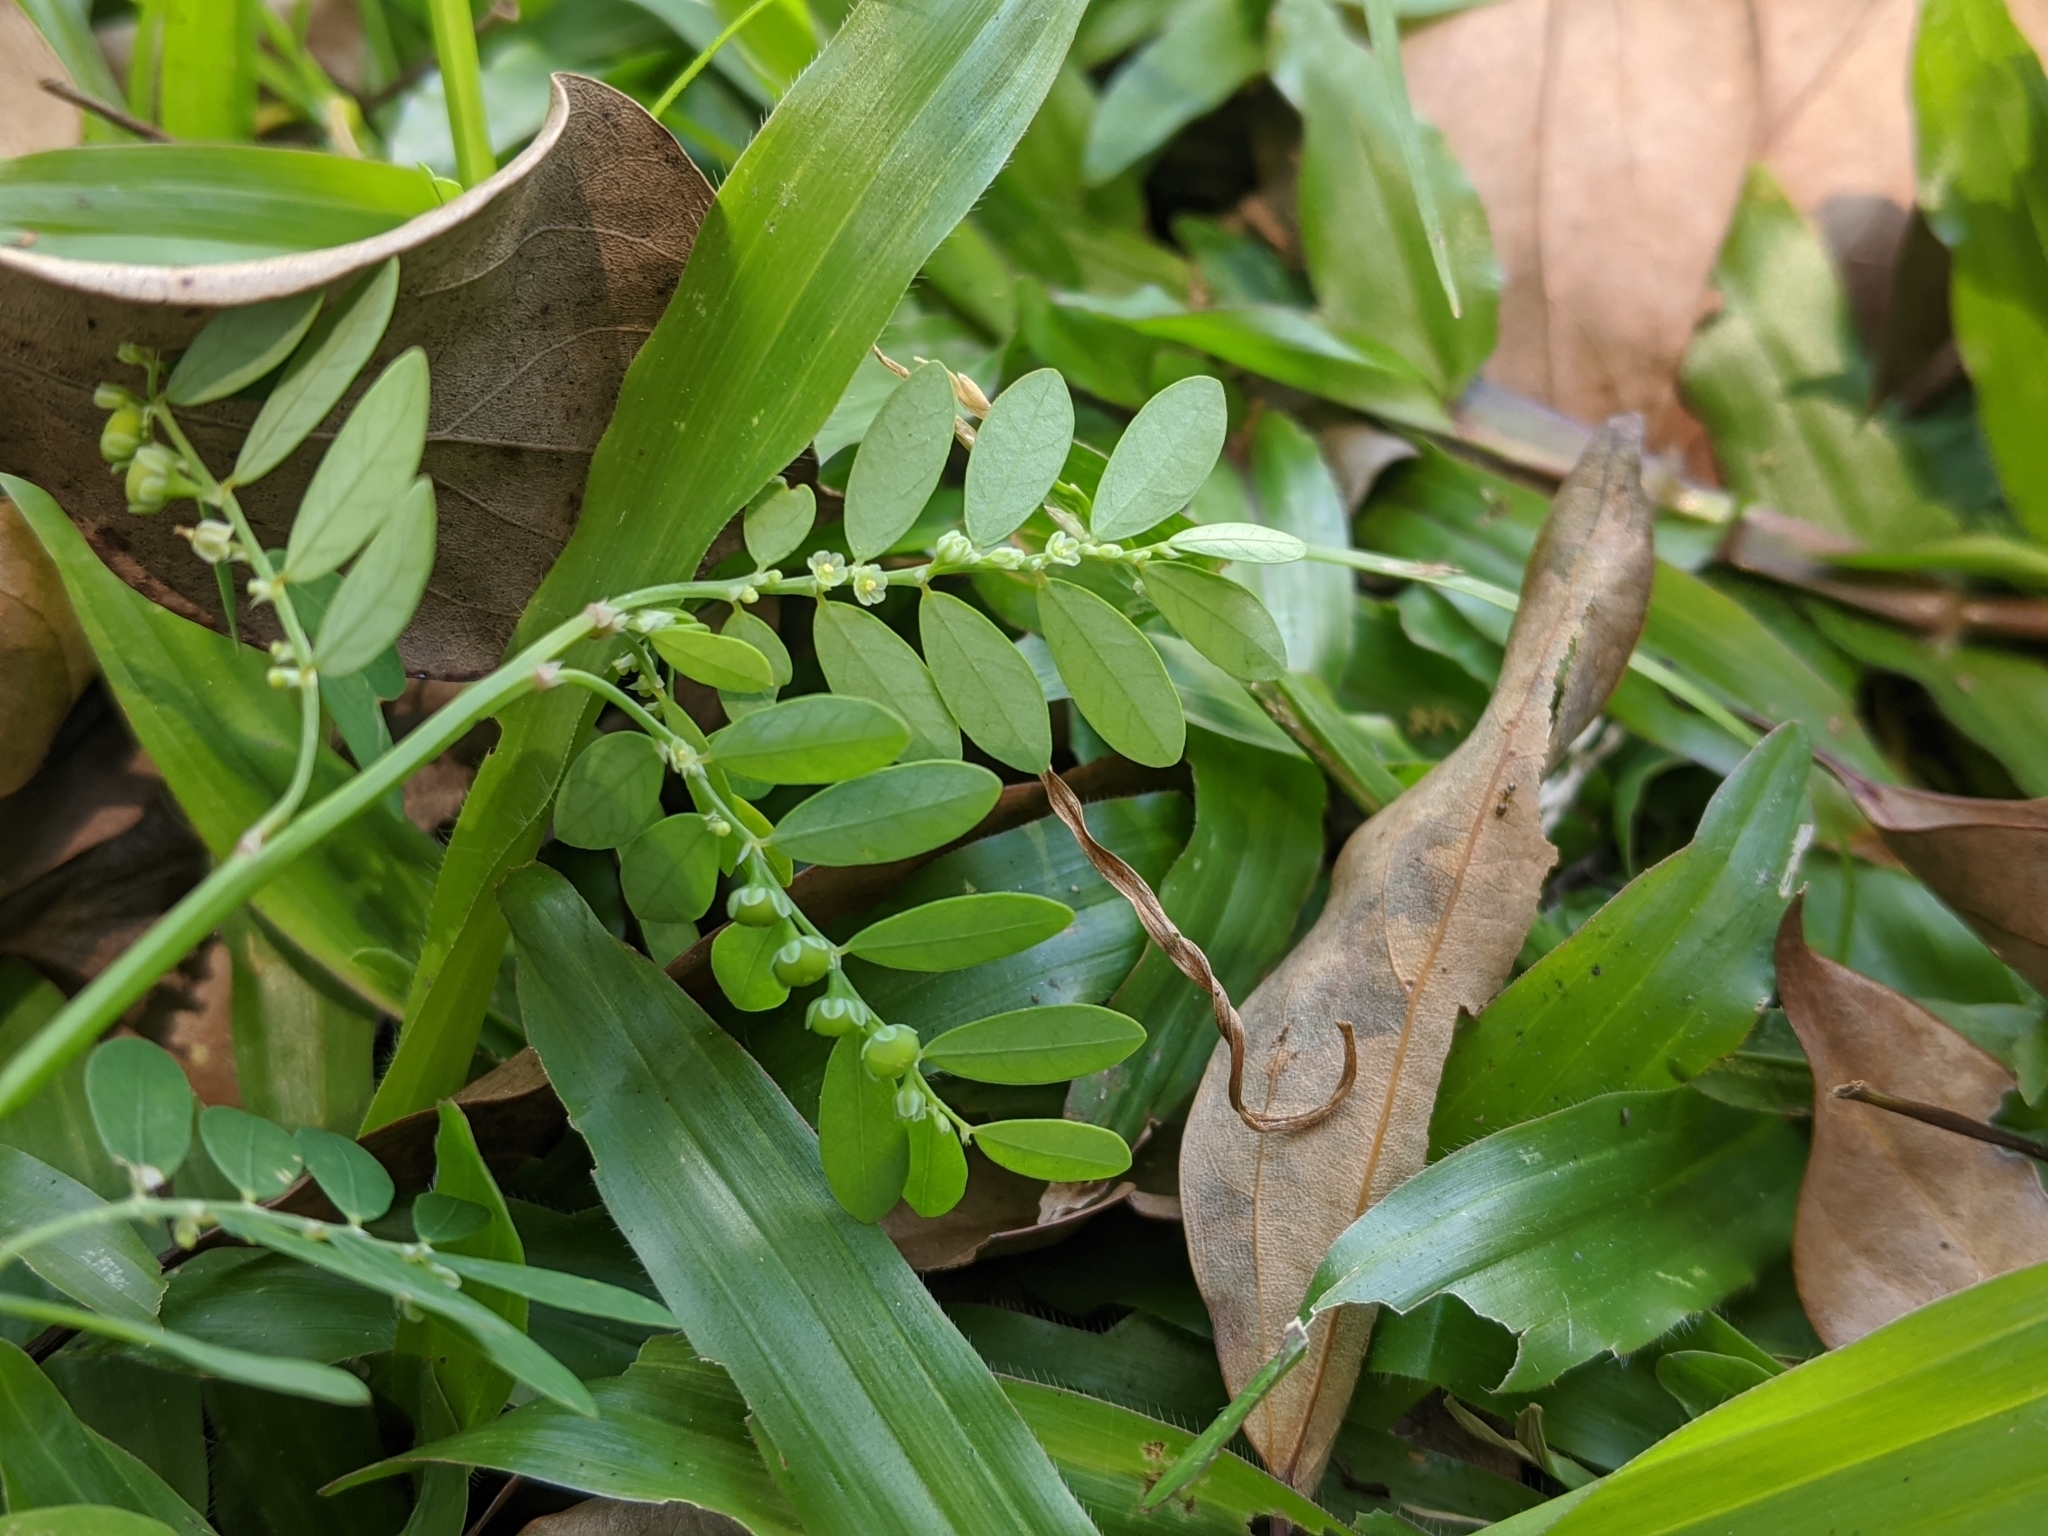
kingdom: Plantae
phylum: Tracheophyta
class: Magnoliopsida
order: Malpighiales
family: Phyllanthaceae
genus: Phyllanthus
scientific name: Phyllanthus debilis
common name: Niruri
